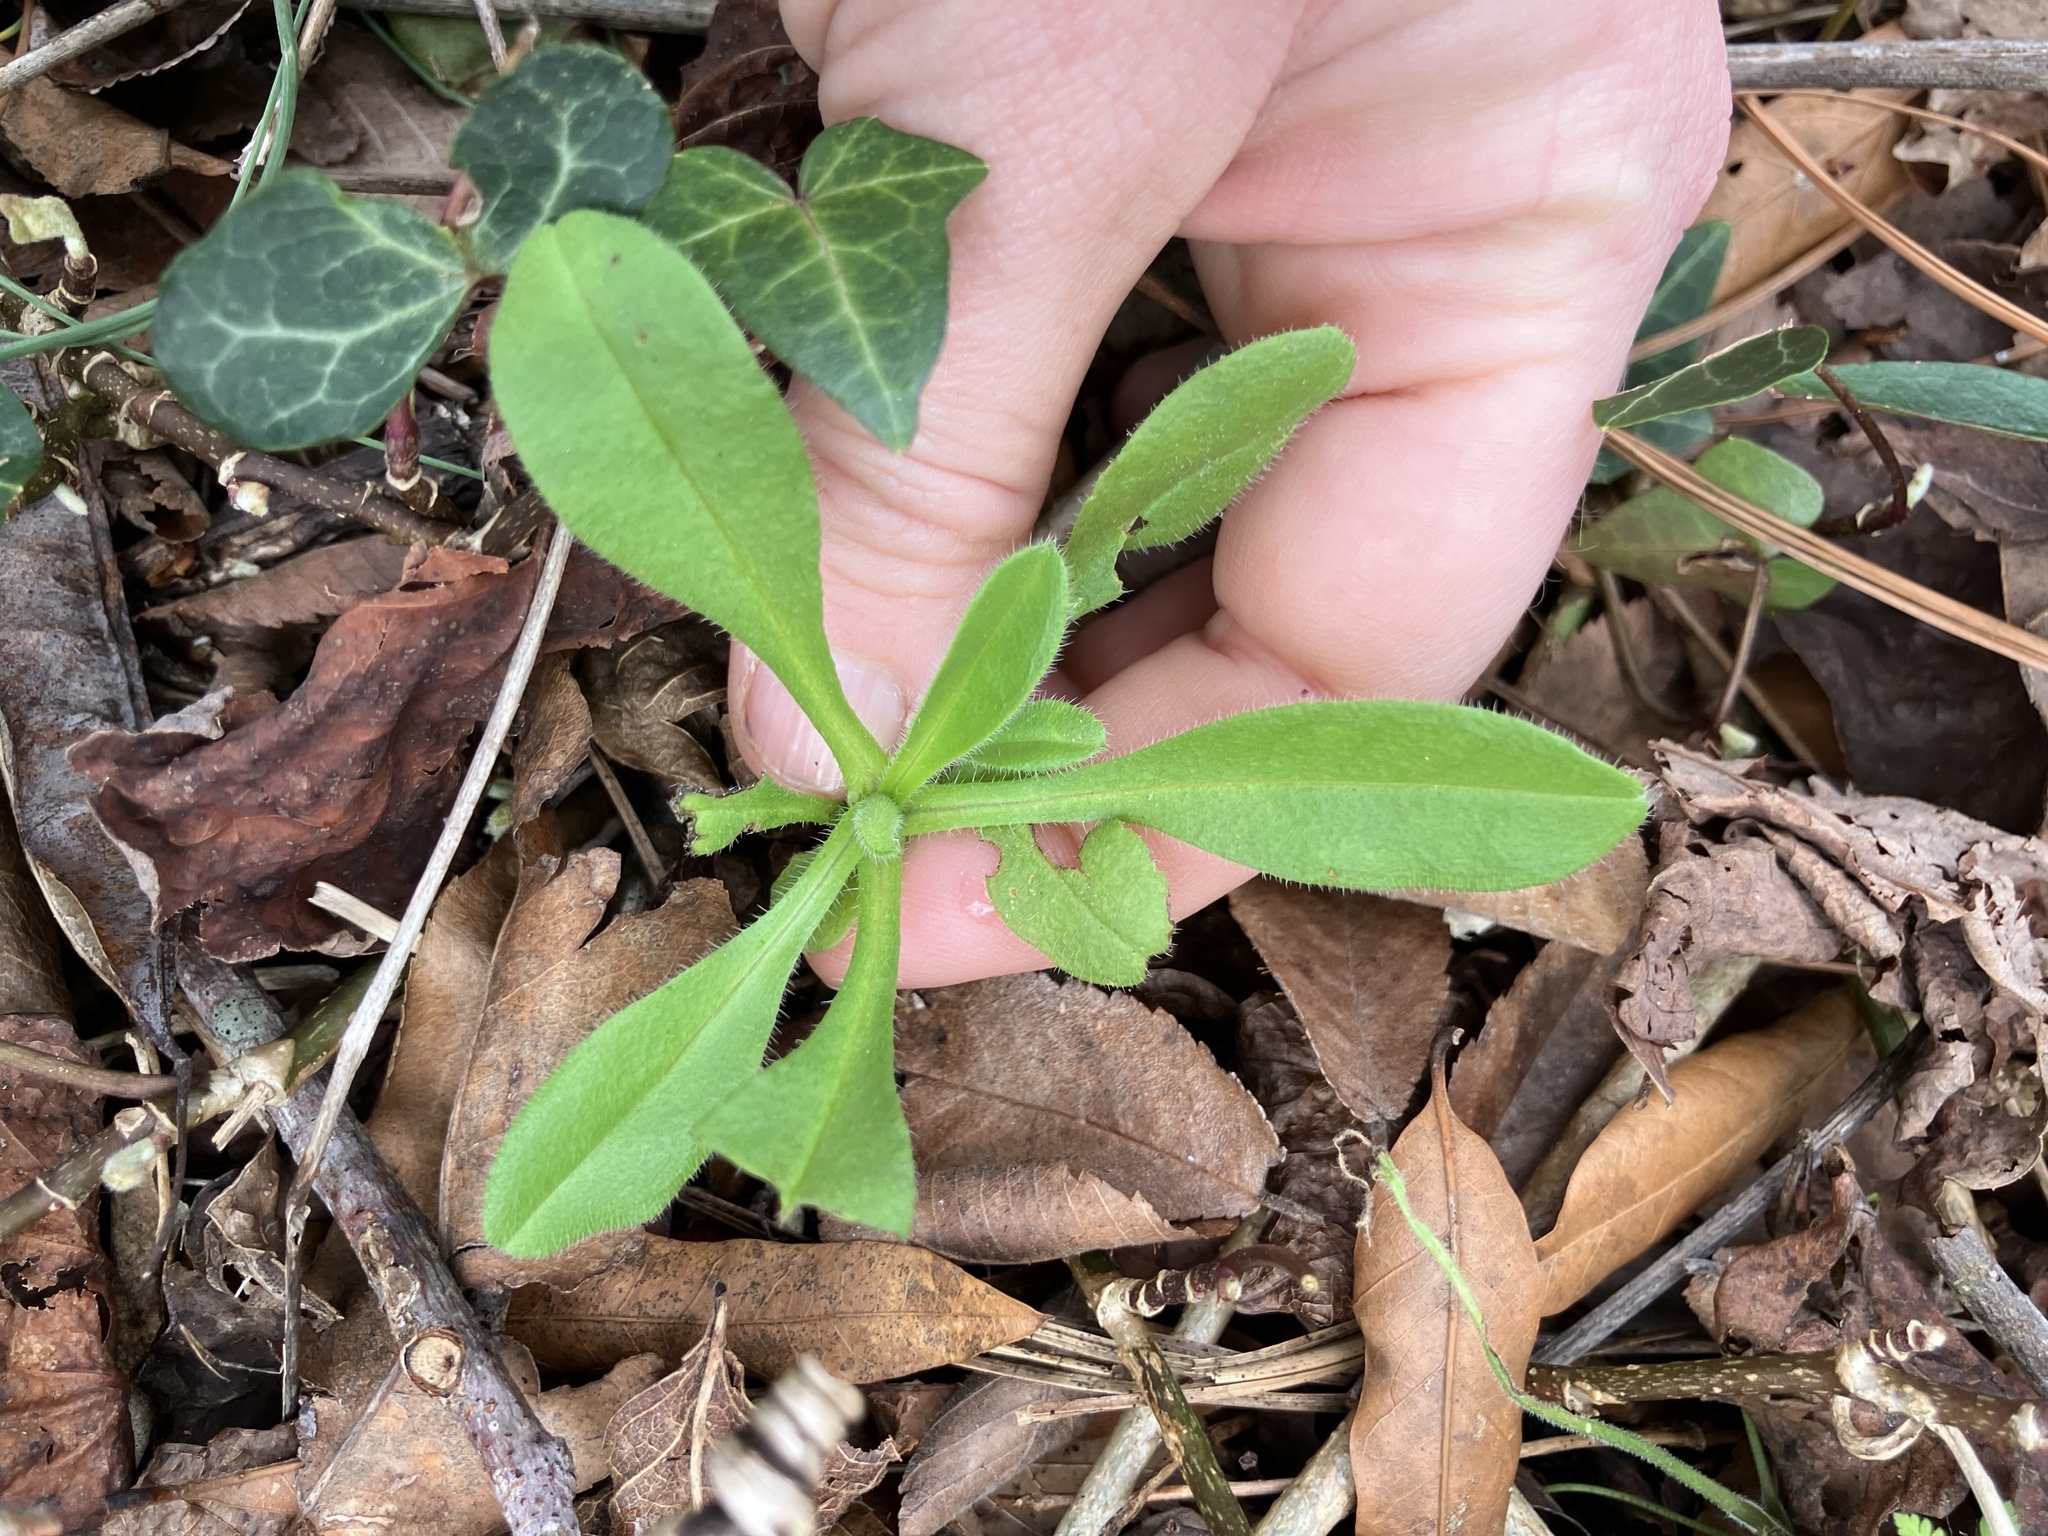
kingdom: Plantae
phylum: Tracheophyta
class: Magnoliopsida
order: Boraginales
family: Boraginaceae
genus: Myosotis
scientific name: Myosotis macrosperma
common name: Large-seed forget-me-not
